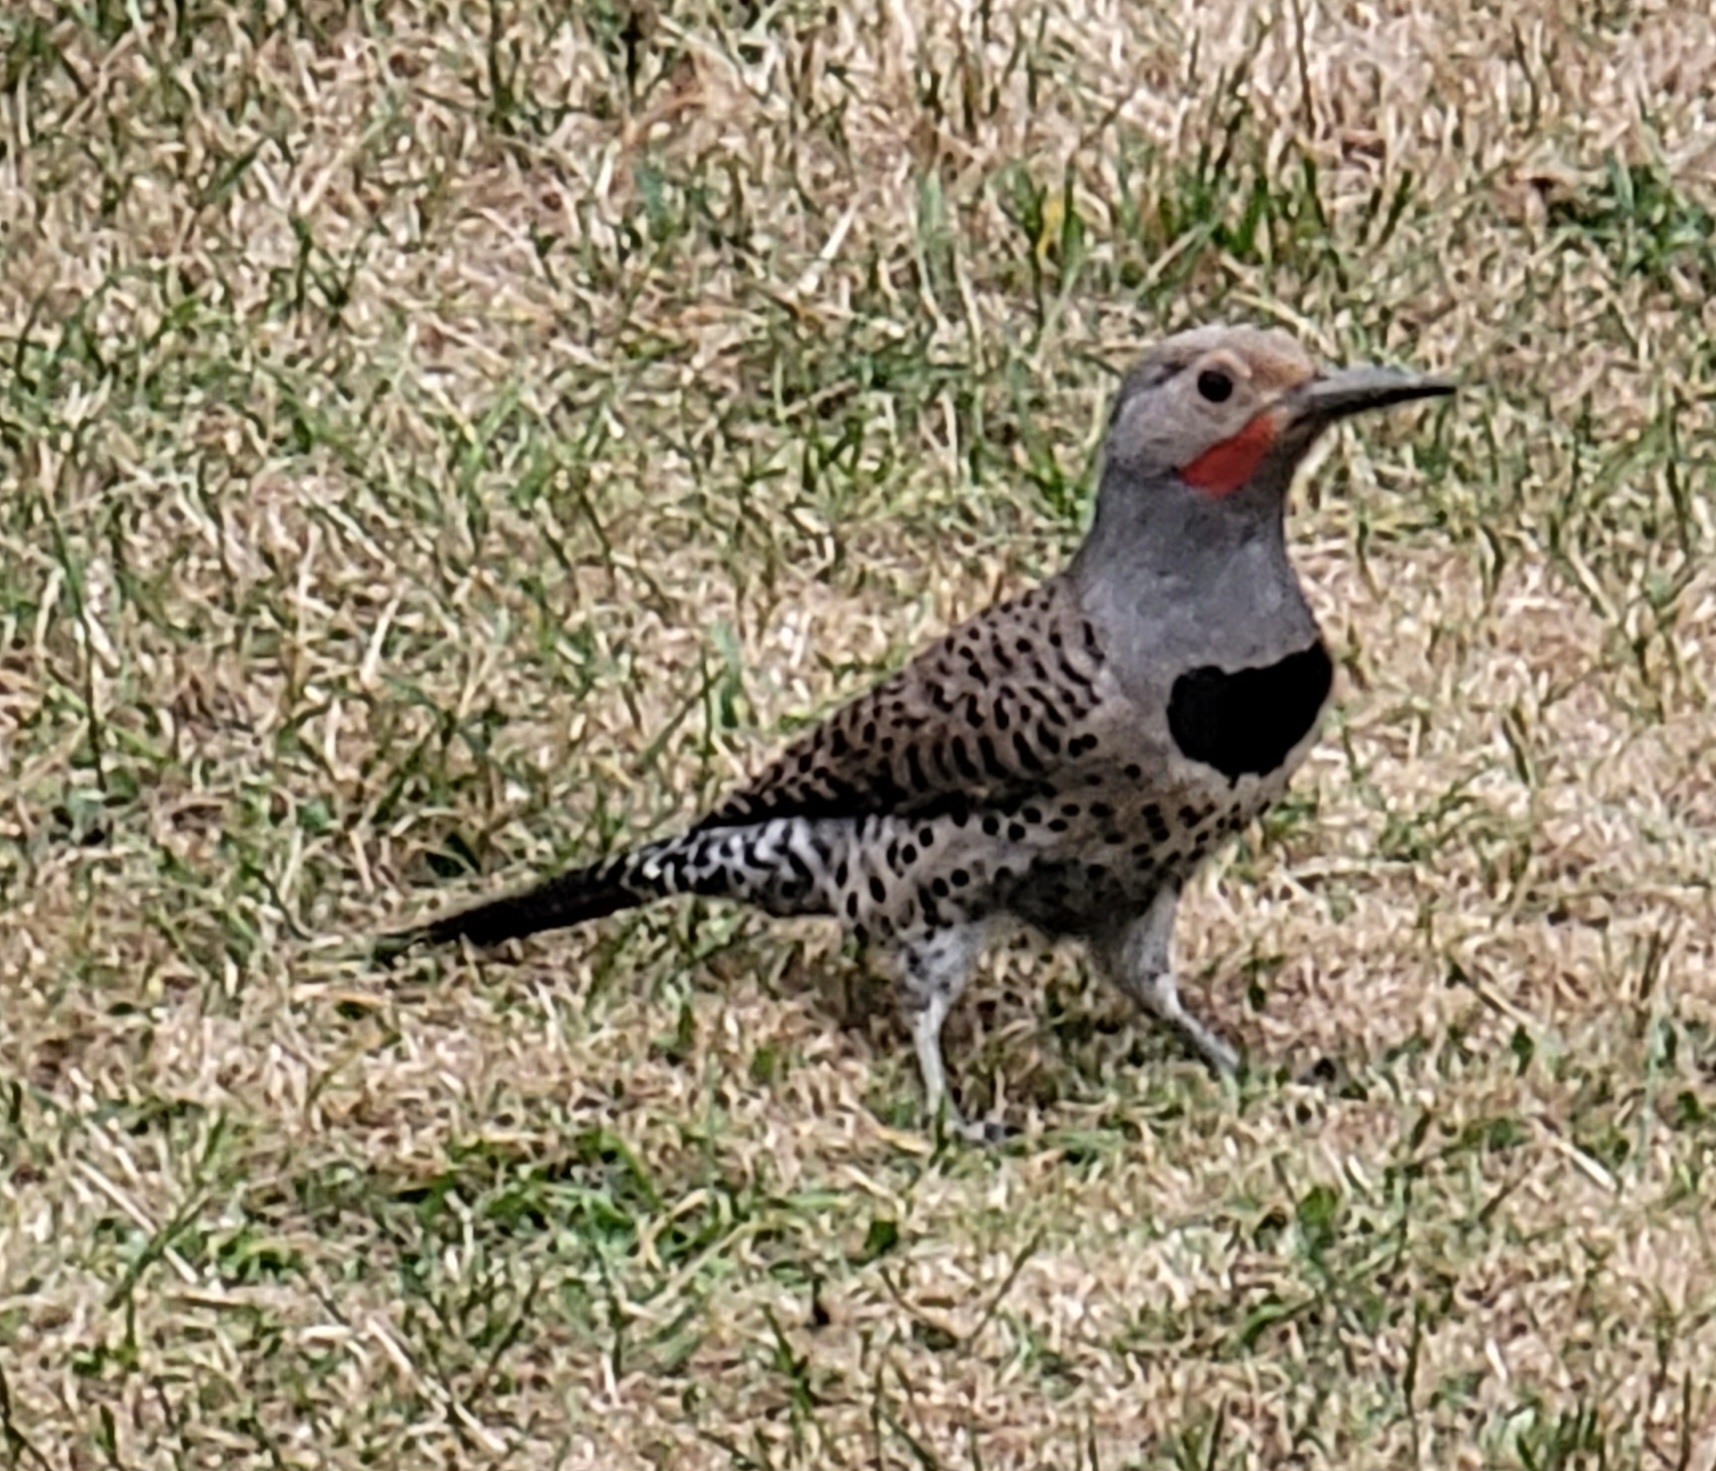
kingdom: Animalia
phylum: Chordata
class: Aves
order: Piciformes
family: Picidae
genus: Colaptes
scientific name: Colaptes auratus
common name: Northern flicker
